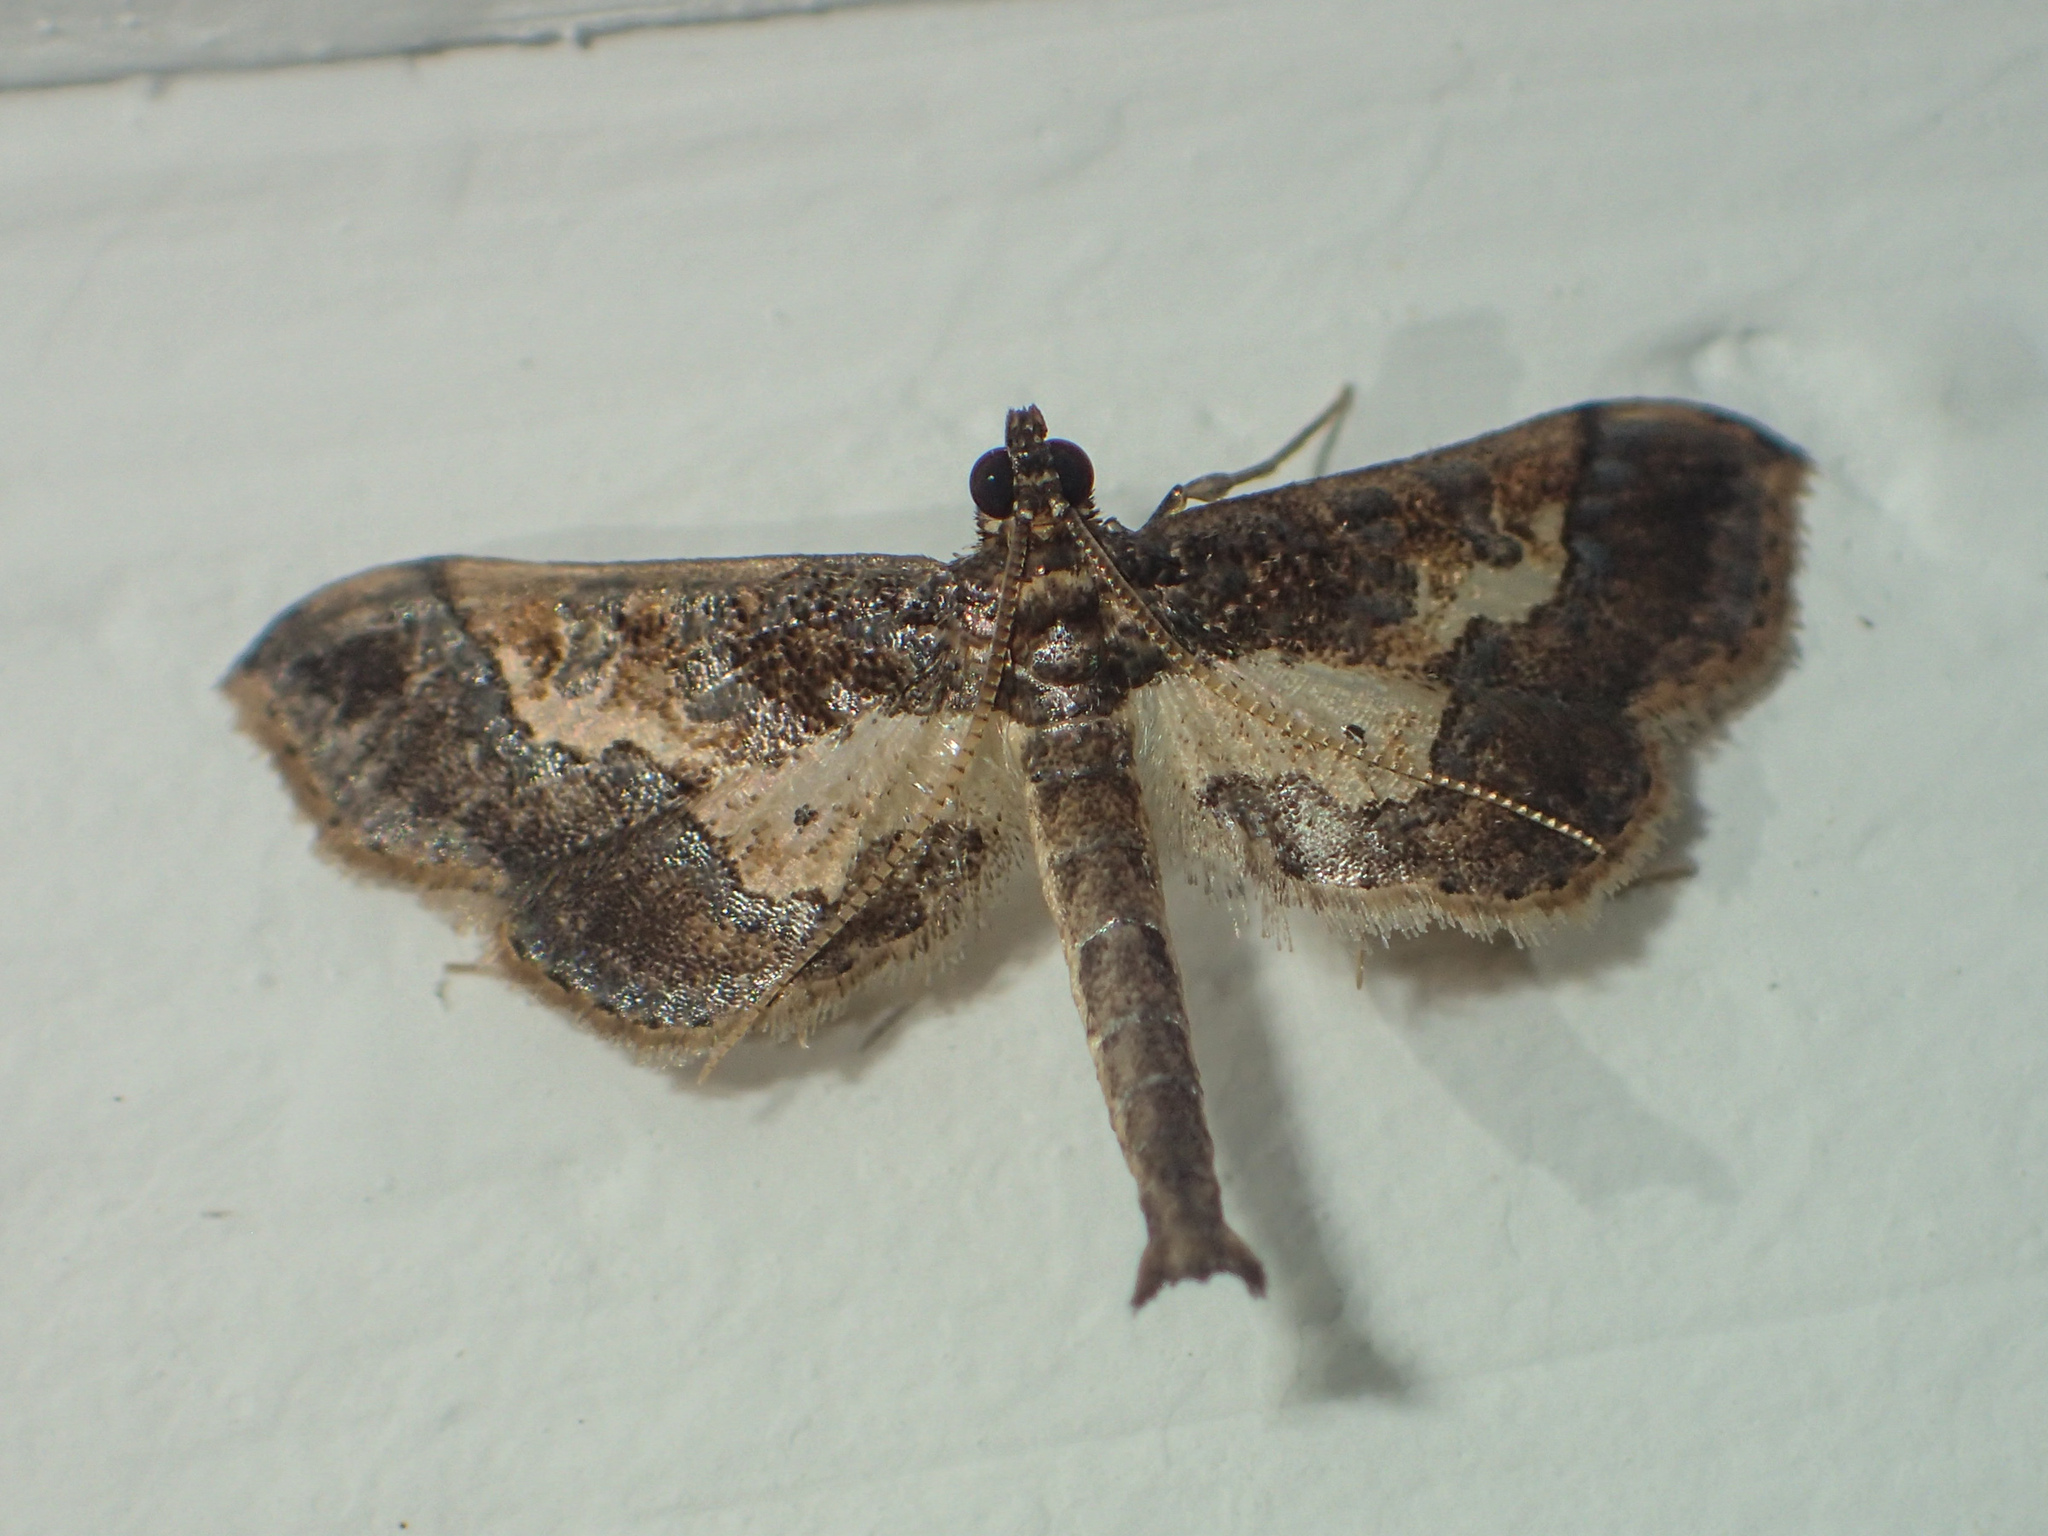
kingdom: Animalia
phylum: Arthropoda
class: Insecta
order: Lepidoptera
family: Crambidae
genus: Hydriris
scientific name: Hydriris ornatalis
